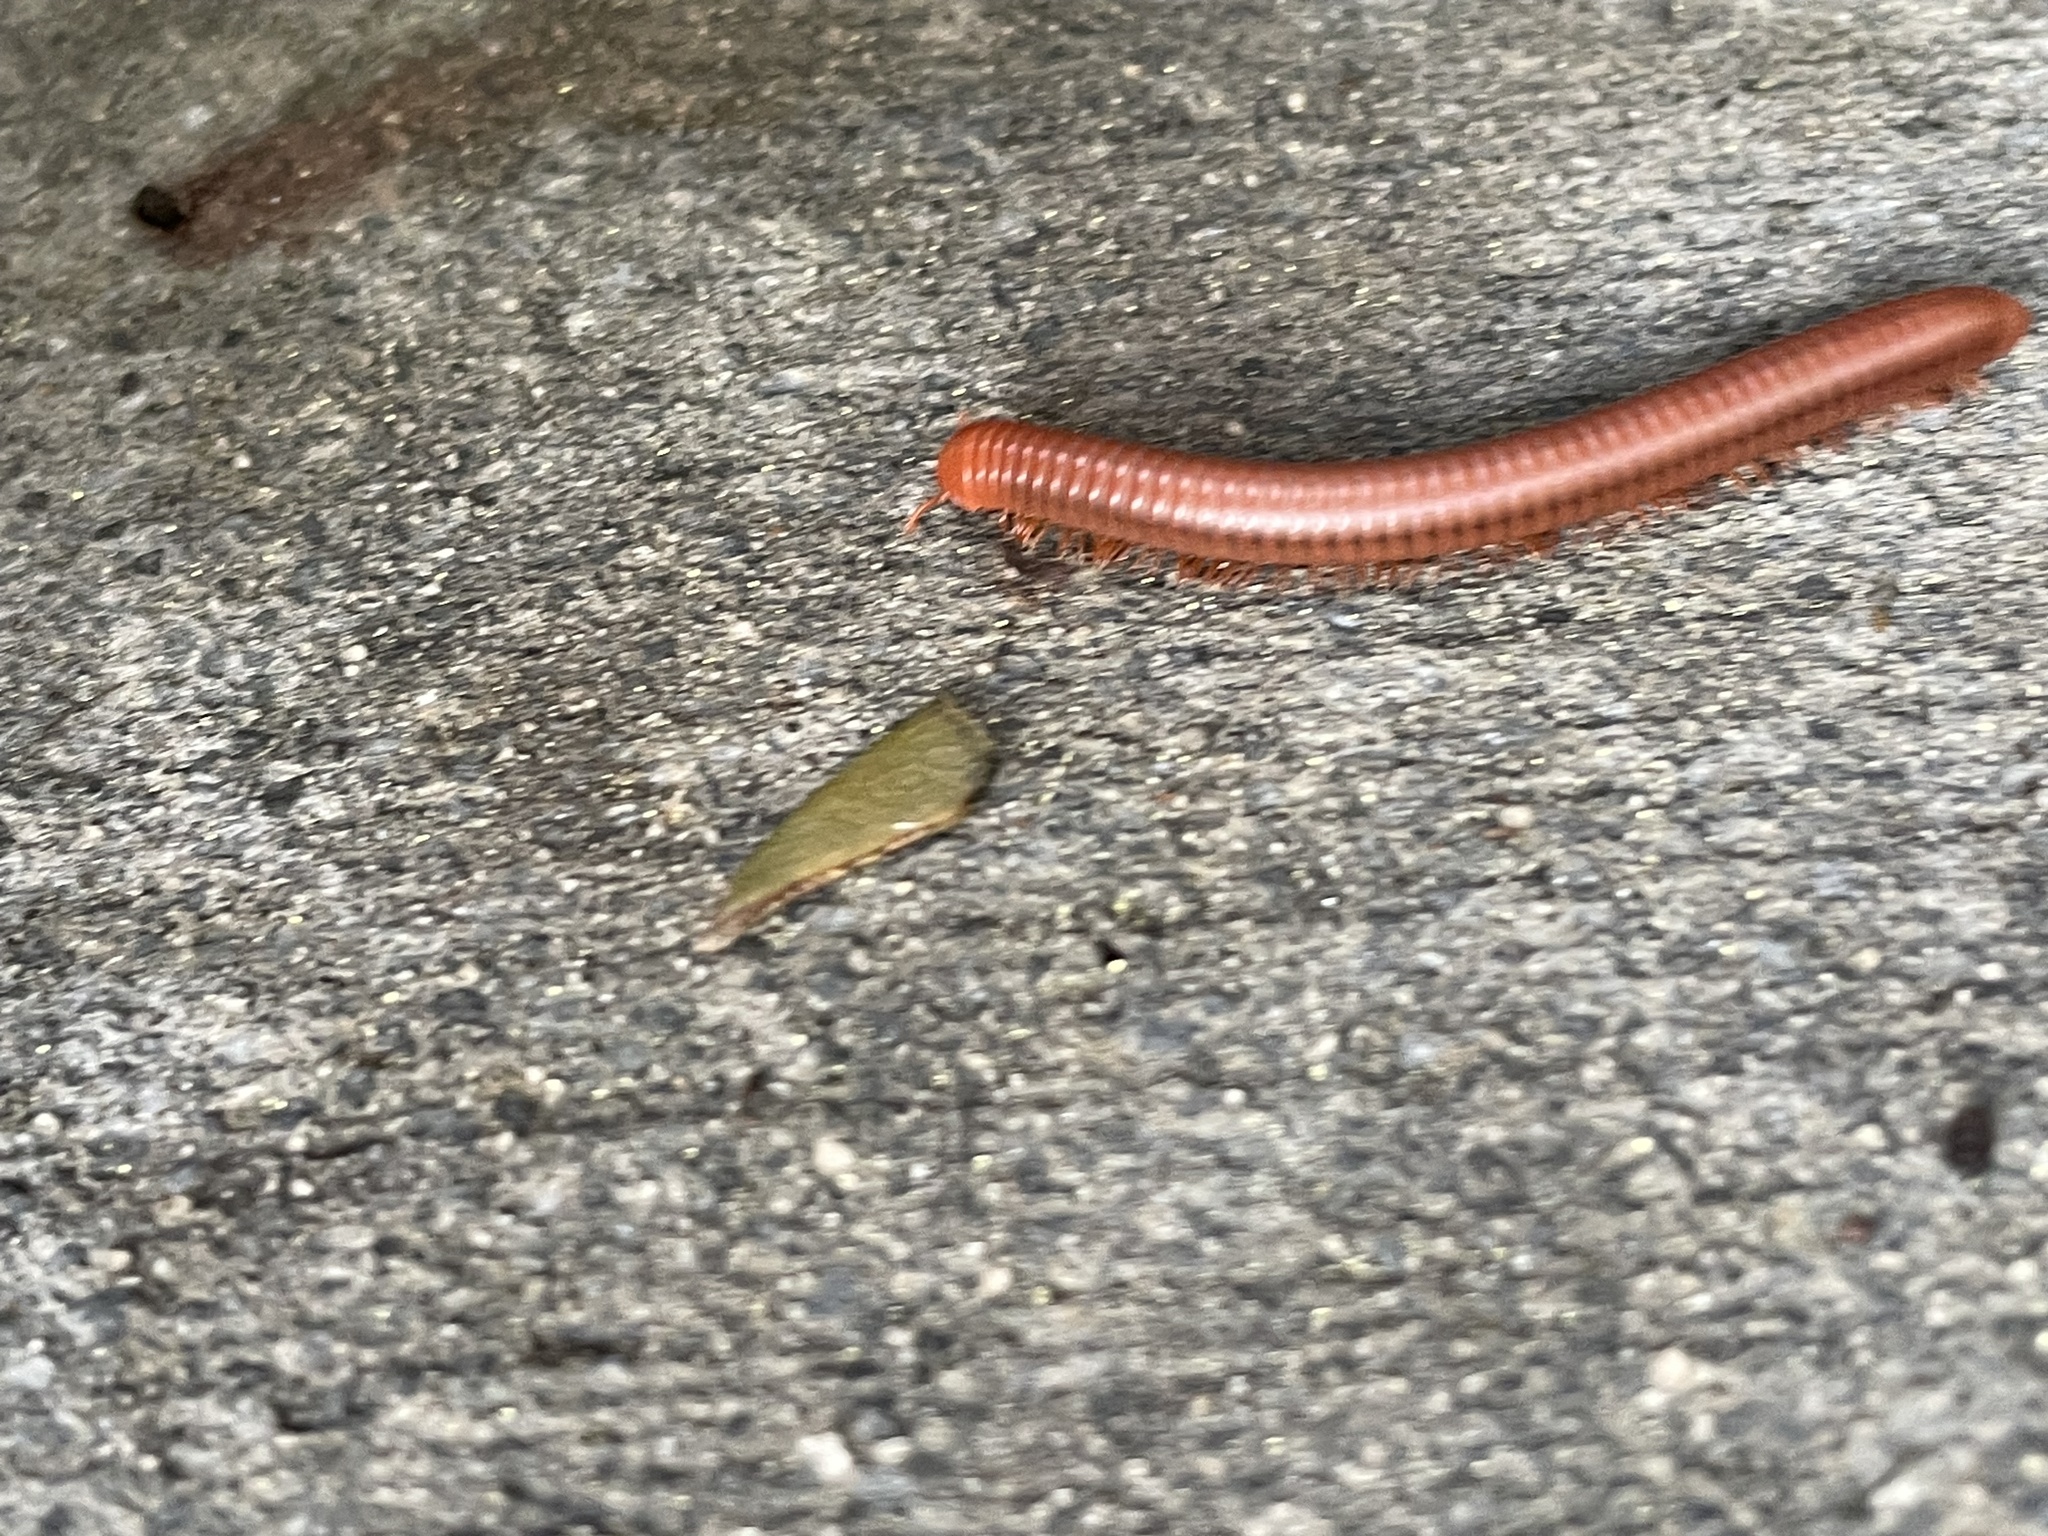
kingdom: Animalia
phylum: Arthropoda
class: Diplopoda
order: Spirobolida
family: Pachybolidae
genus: Trigoniulus
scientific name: Trigoniulus corallinus
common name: Millipede
